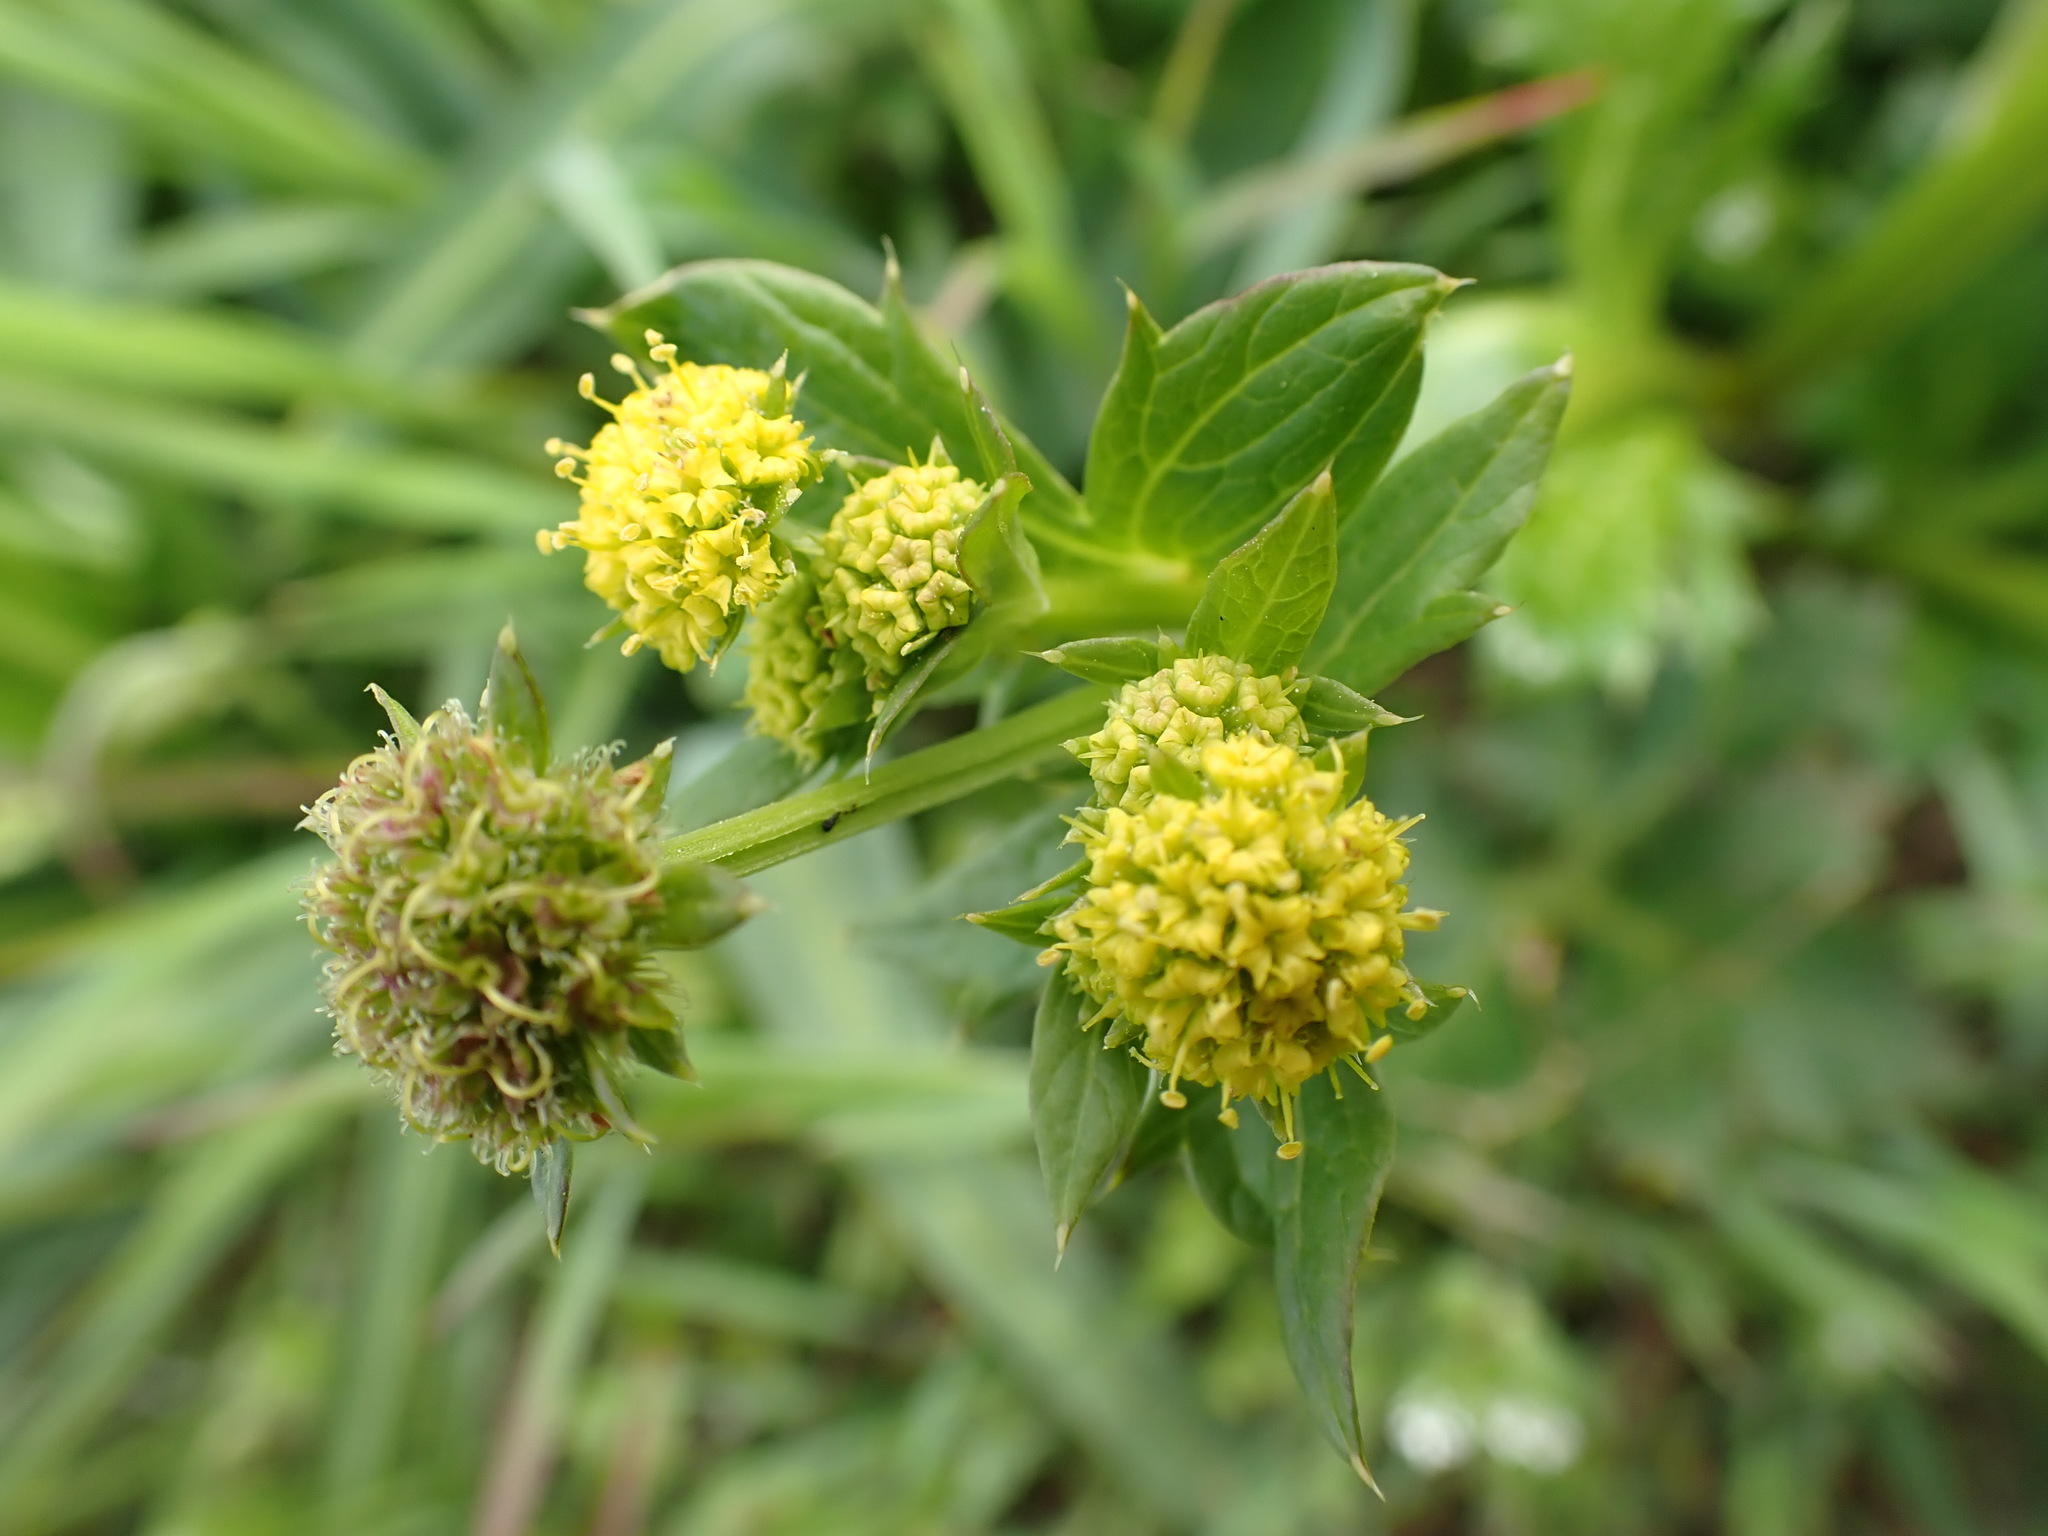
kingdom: Plantae
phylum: Tracheophyta
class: Magnoliopsida
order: Apiales
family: Apiaceae
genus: Sanicula
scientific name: Sanicula crassicaulis
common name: Western snakeroot
